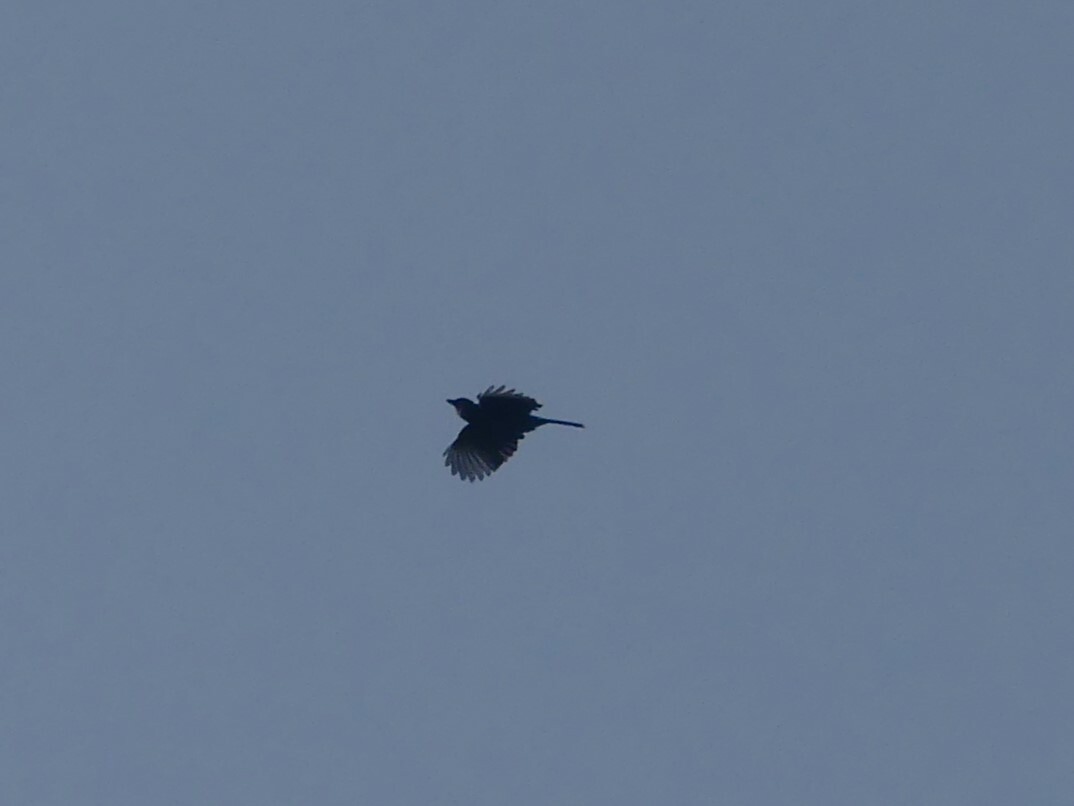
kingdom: Animalia
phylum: Chordata
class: Aves
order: Passeriformes
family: Corvidae
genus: Cyanocitta
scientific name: Cyanocitta stelleri
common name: Steller's jay
